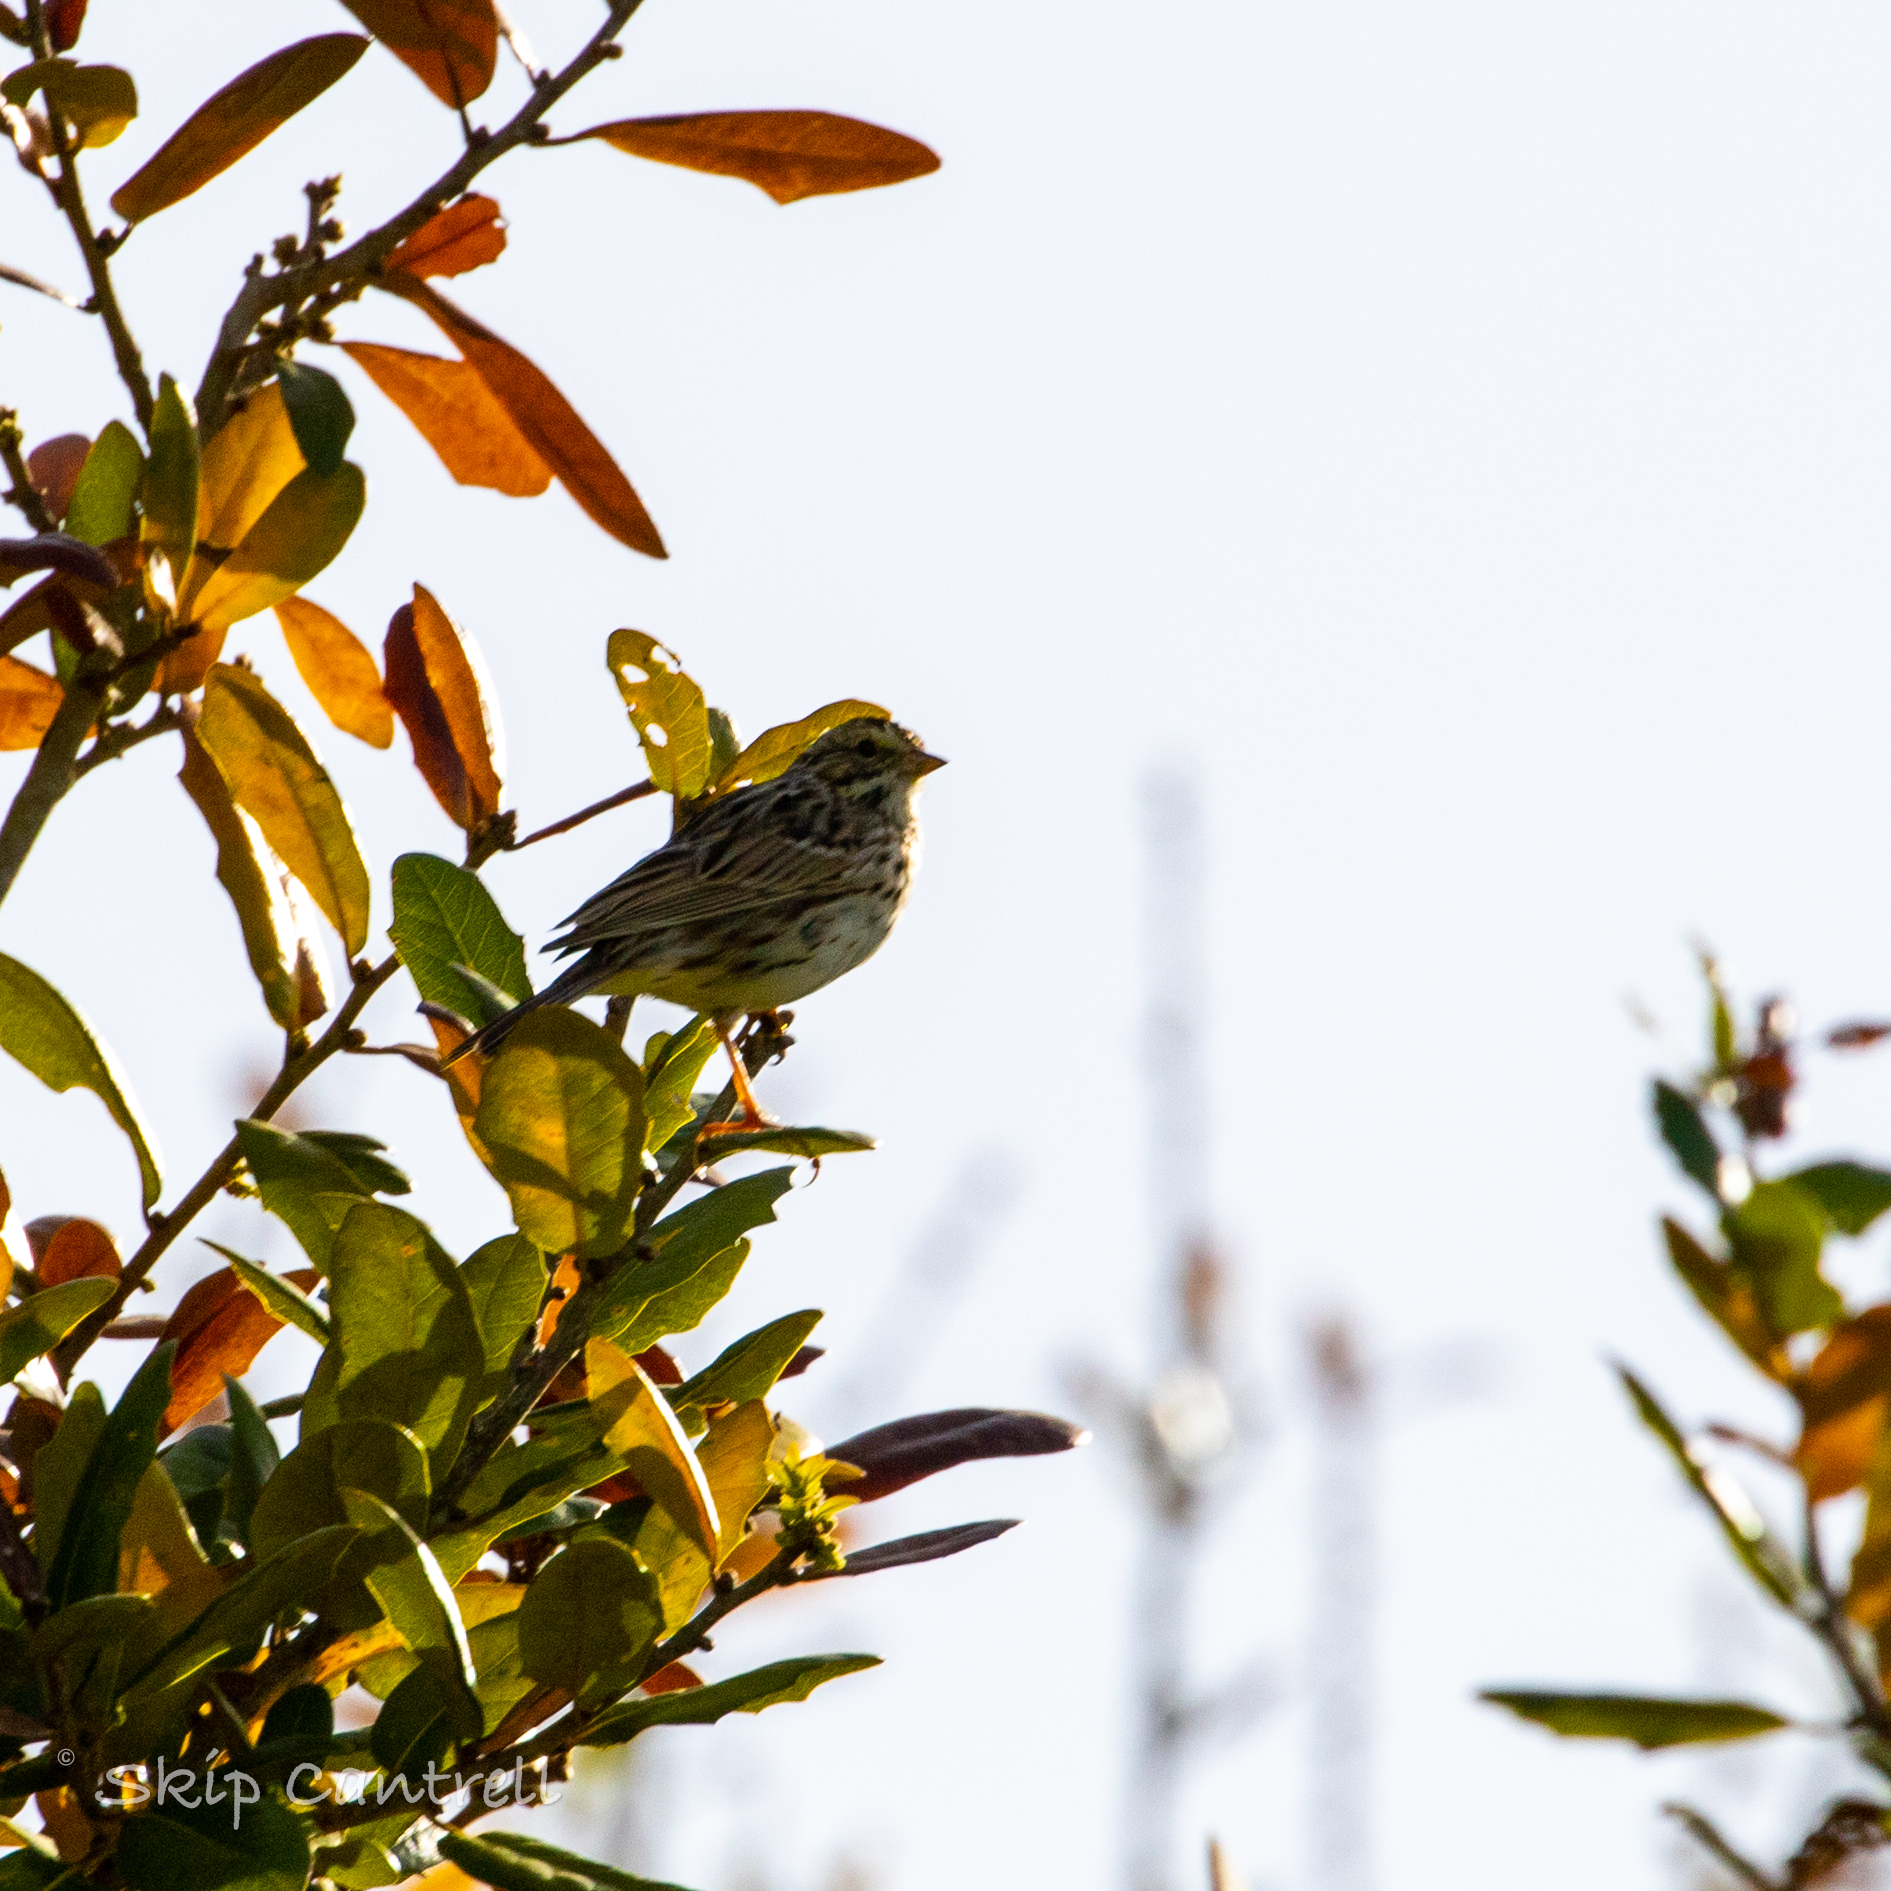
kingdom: Animalia
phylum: Chordata
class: Aves
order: Passeriformes
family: Passerellidae
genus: Passerculus
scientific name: Passerculus sandwichensis
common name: Savannah sparrow
